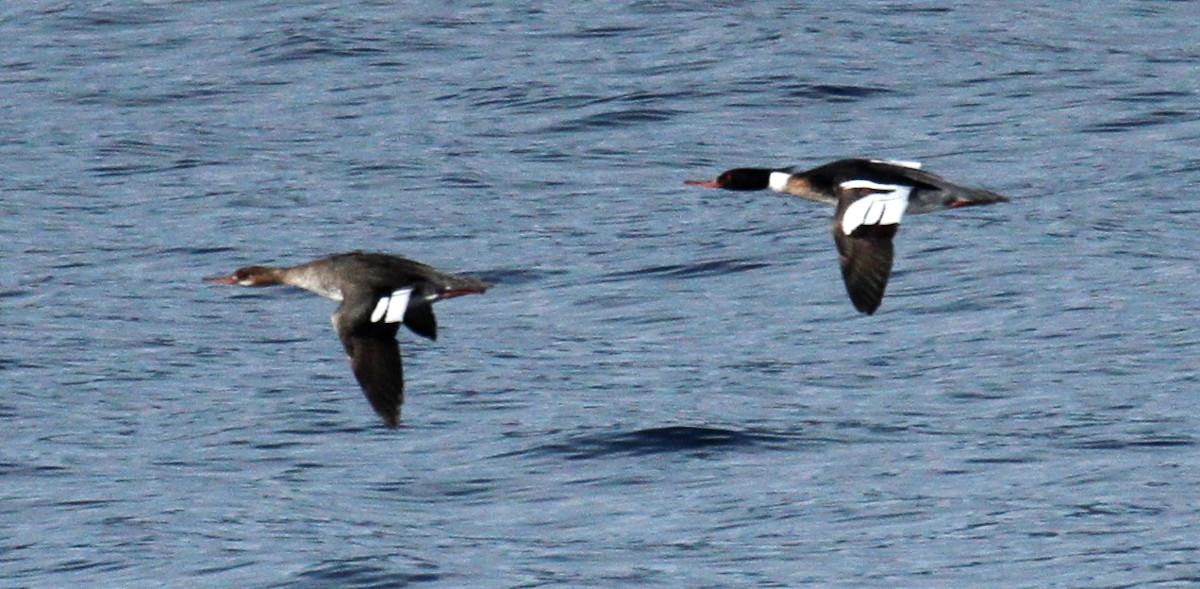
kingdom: Animalia
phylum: Chordata
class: Aves
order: Anseriformes
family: Anatidae
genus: Mergus
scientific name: Mergus serrator
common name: Red-breasted merganser
